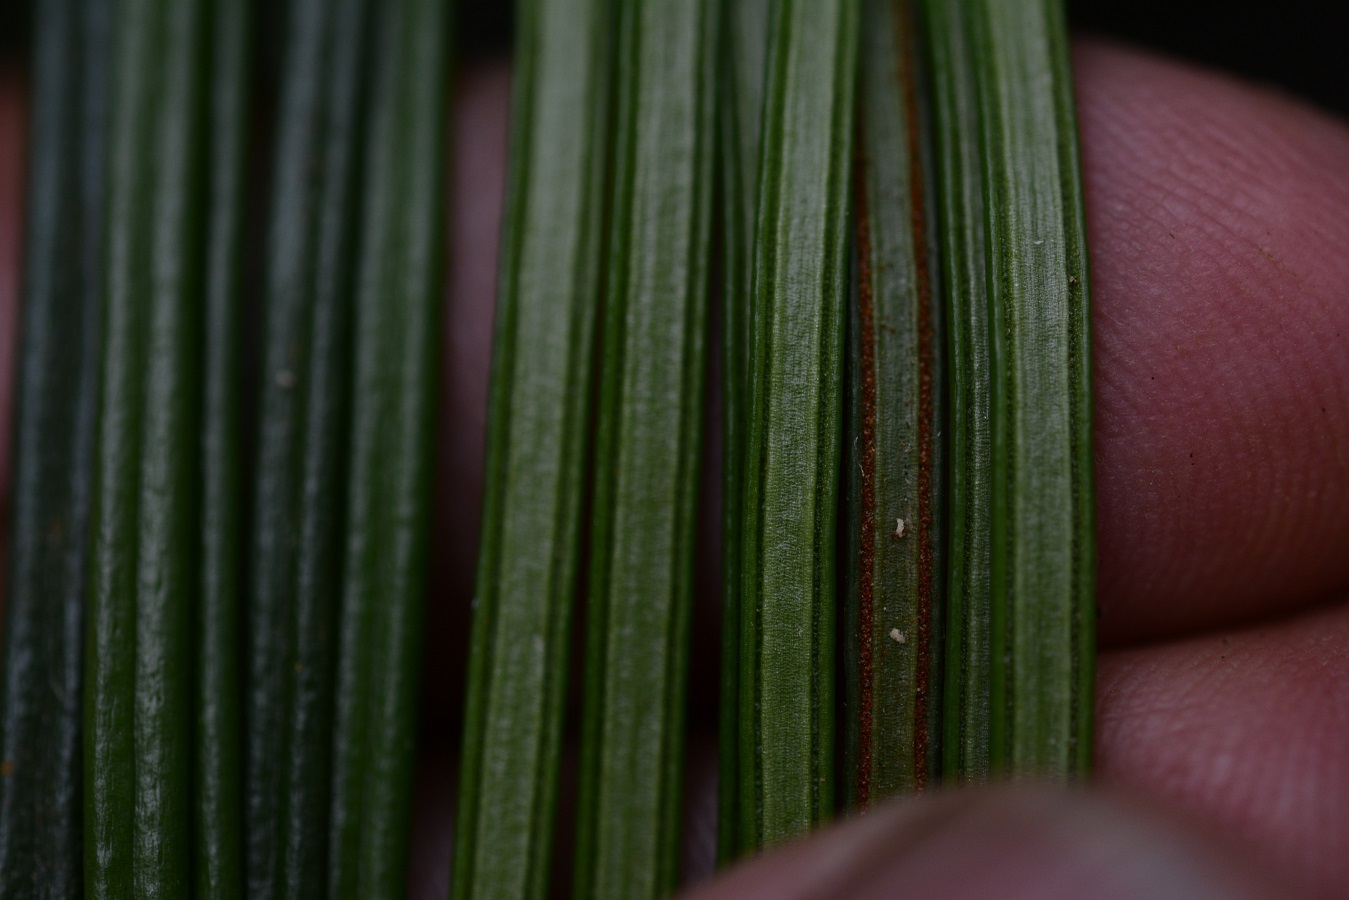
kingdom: Plantae
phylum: Tracheophyta
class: Polypodiopsida
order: Polypodiales
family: Pteridaceae
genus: Vittaria
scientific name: Vittaria lineata
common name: Shoestring fern
